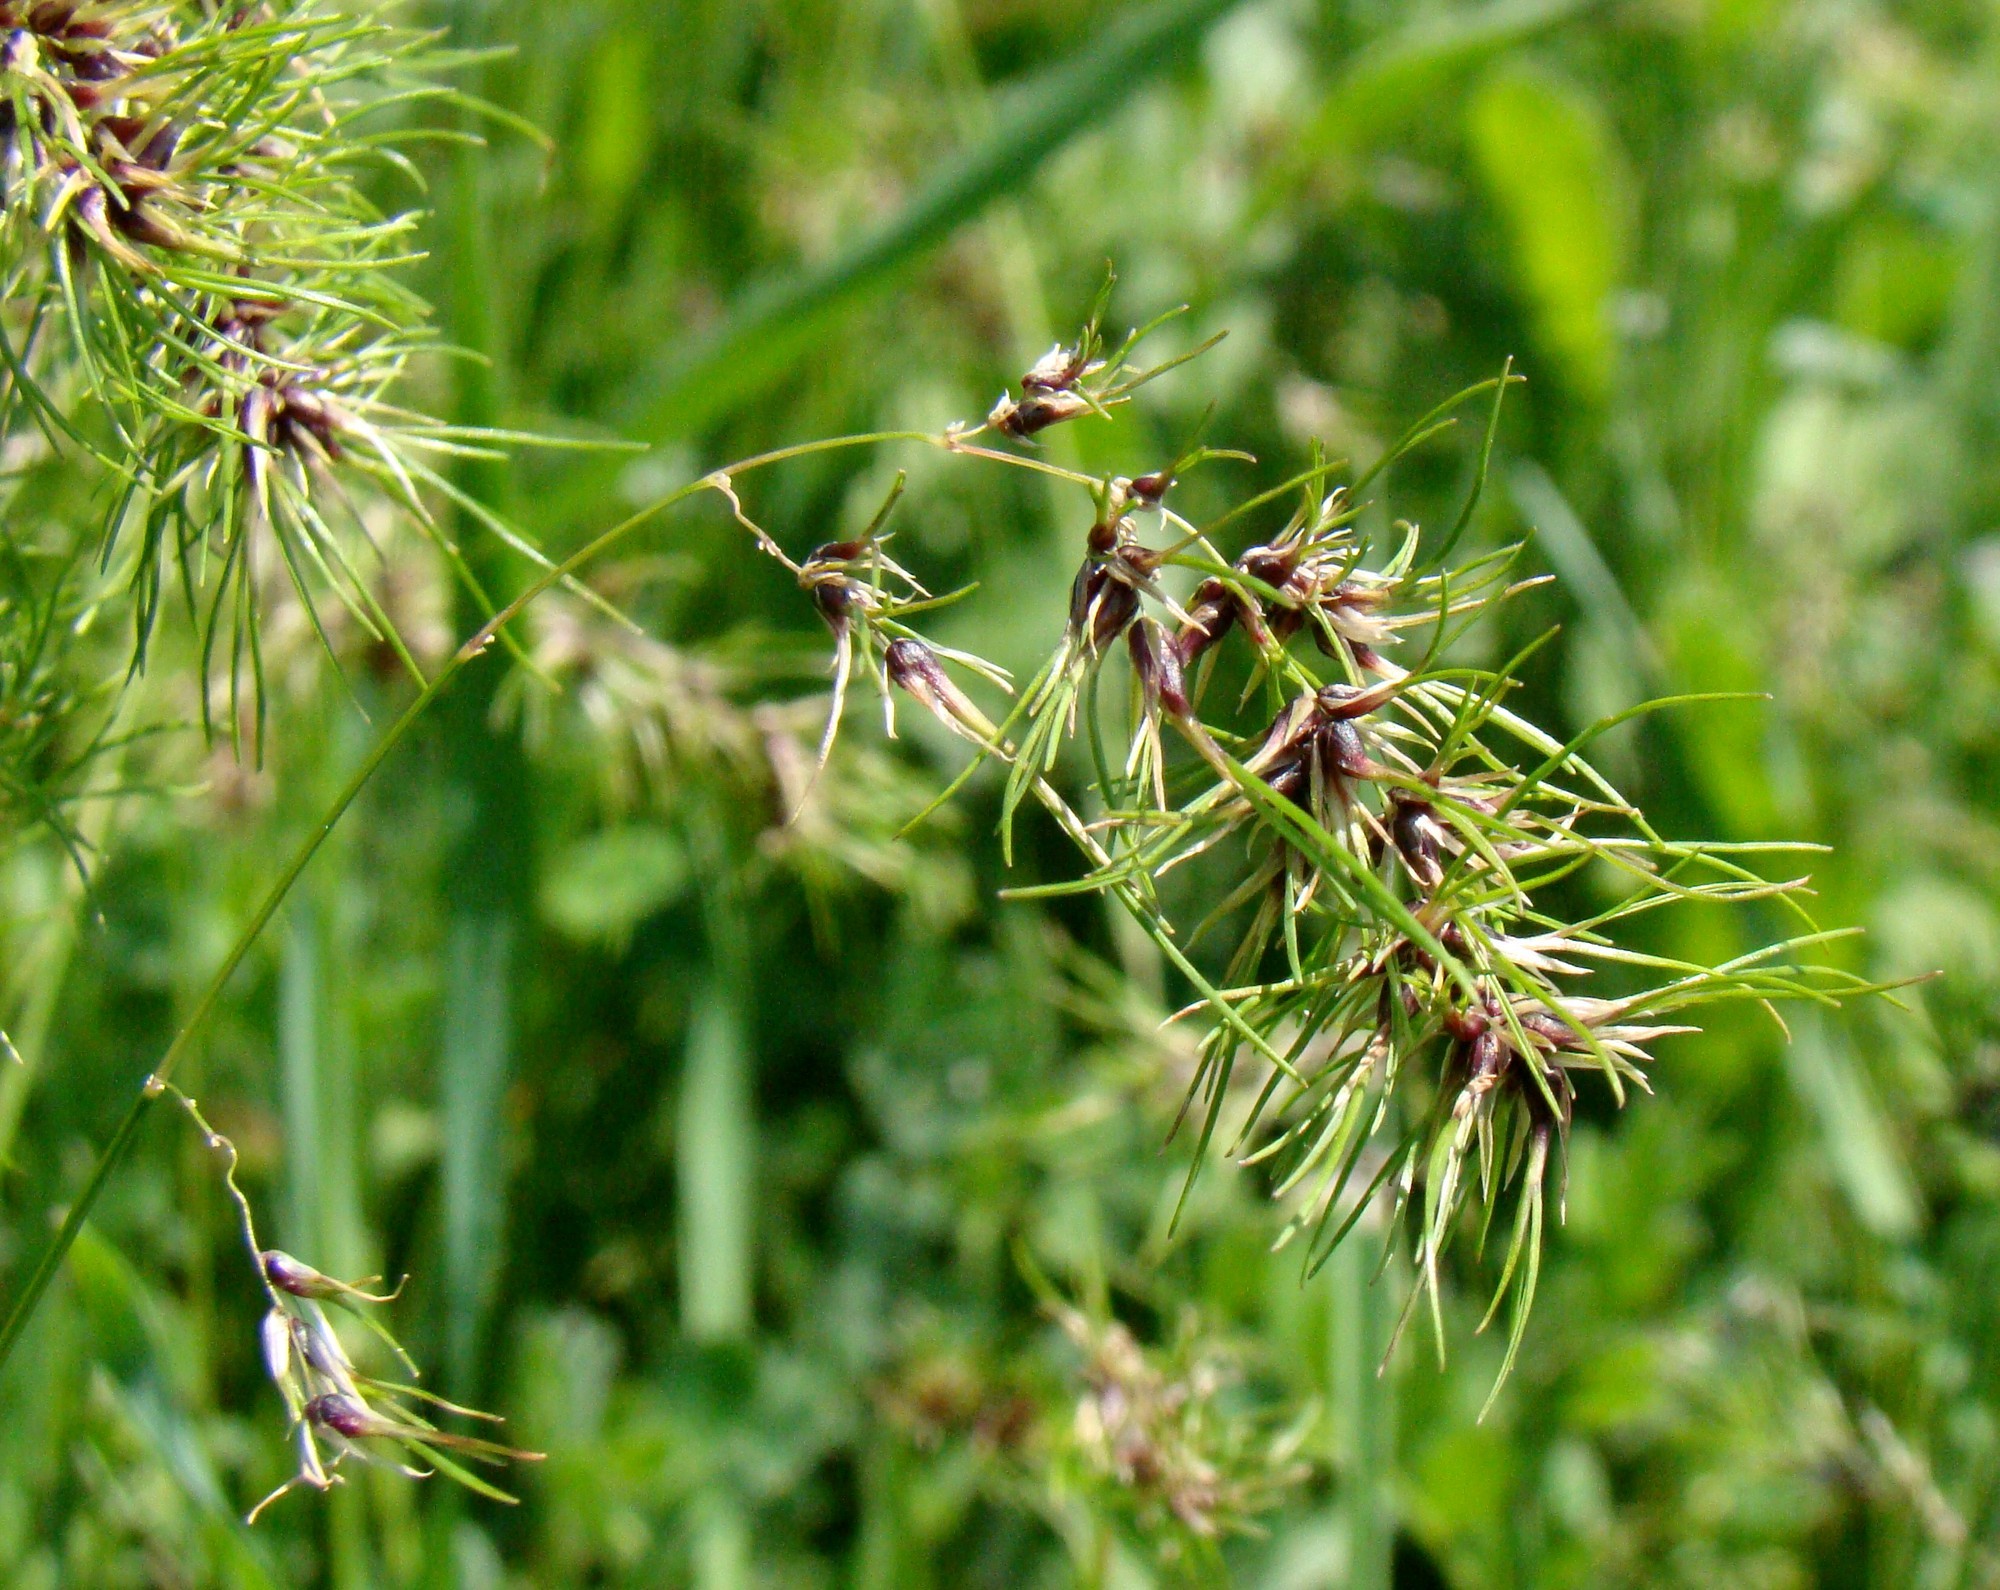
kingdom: Plantae
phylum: Tracheophyta
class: Liliopsida
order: Poales
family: Poaceae
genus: Poa
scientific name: Poa bulbosa
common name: Bulbous bluegrass
